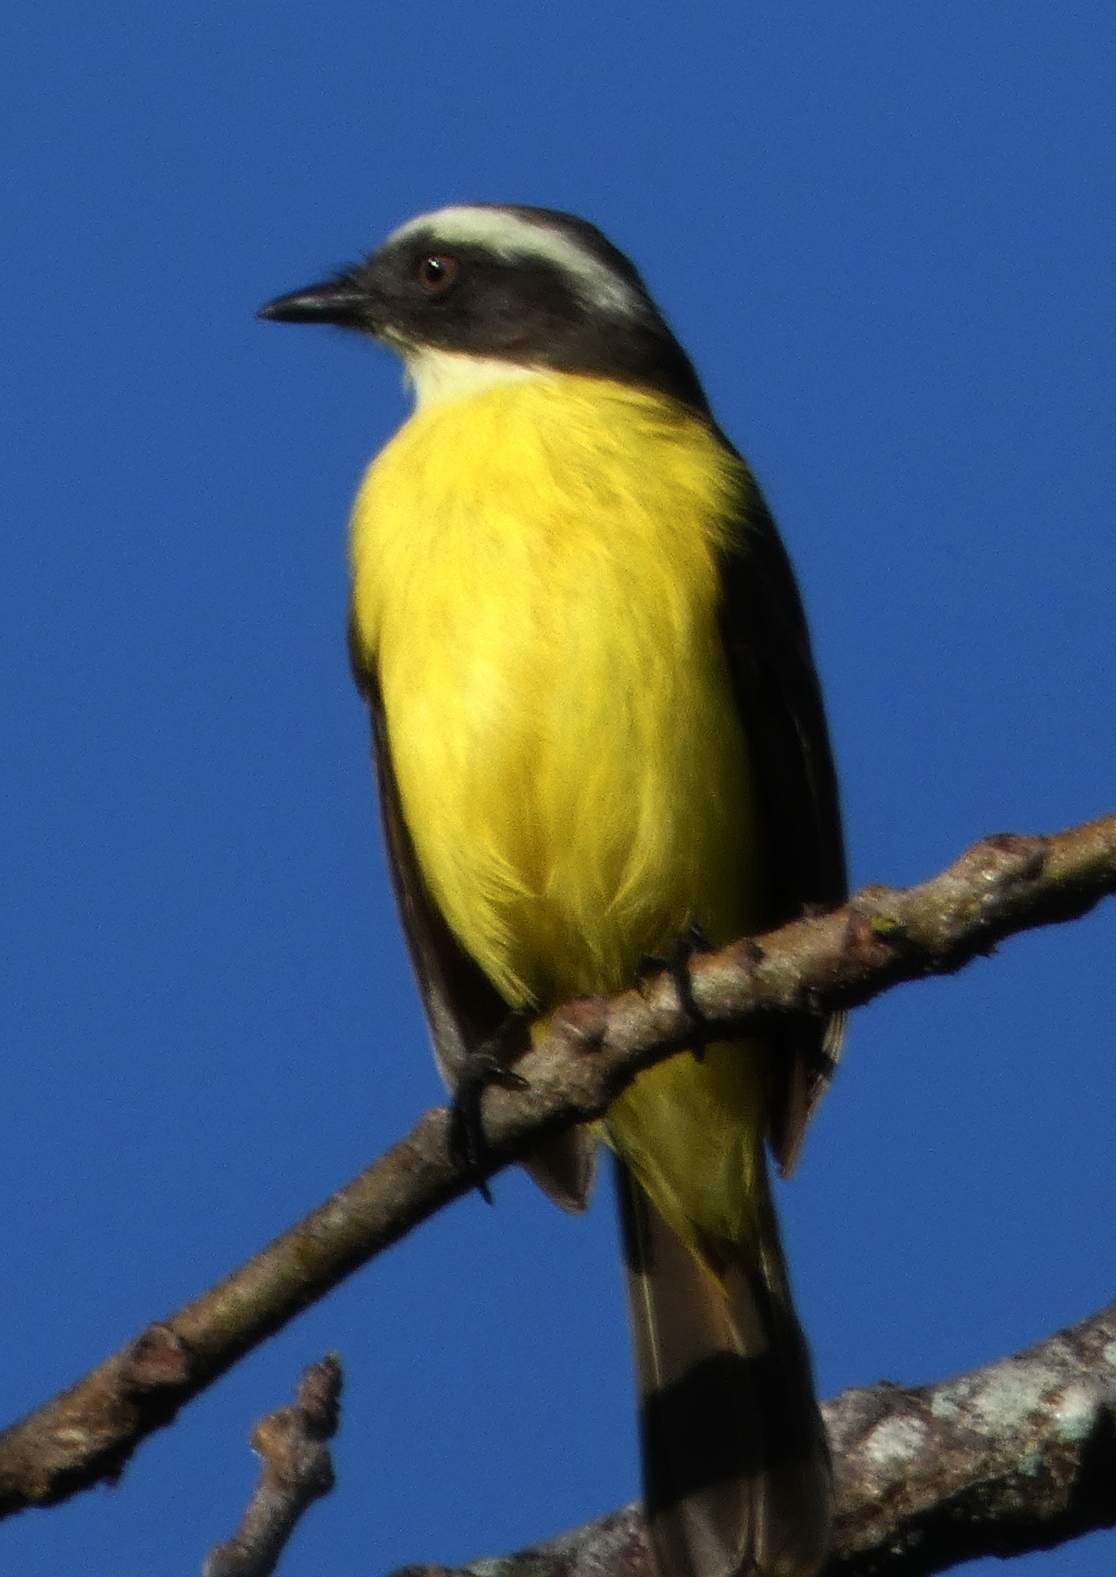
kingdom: Animalia
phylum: Chordata
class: Aves
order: Passeriformes
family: Tyrannidae
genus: Myiozetetes
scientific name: Myiozetetes similis
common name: Social flycatcher
